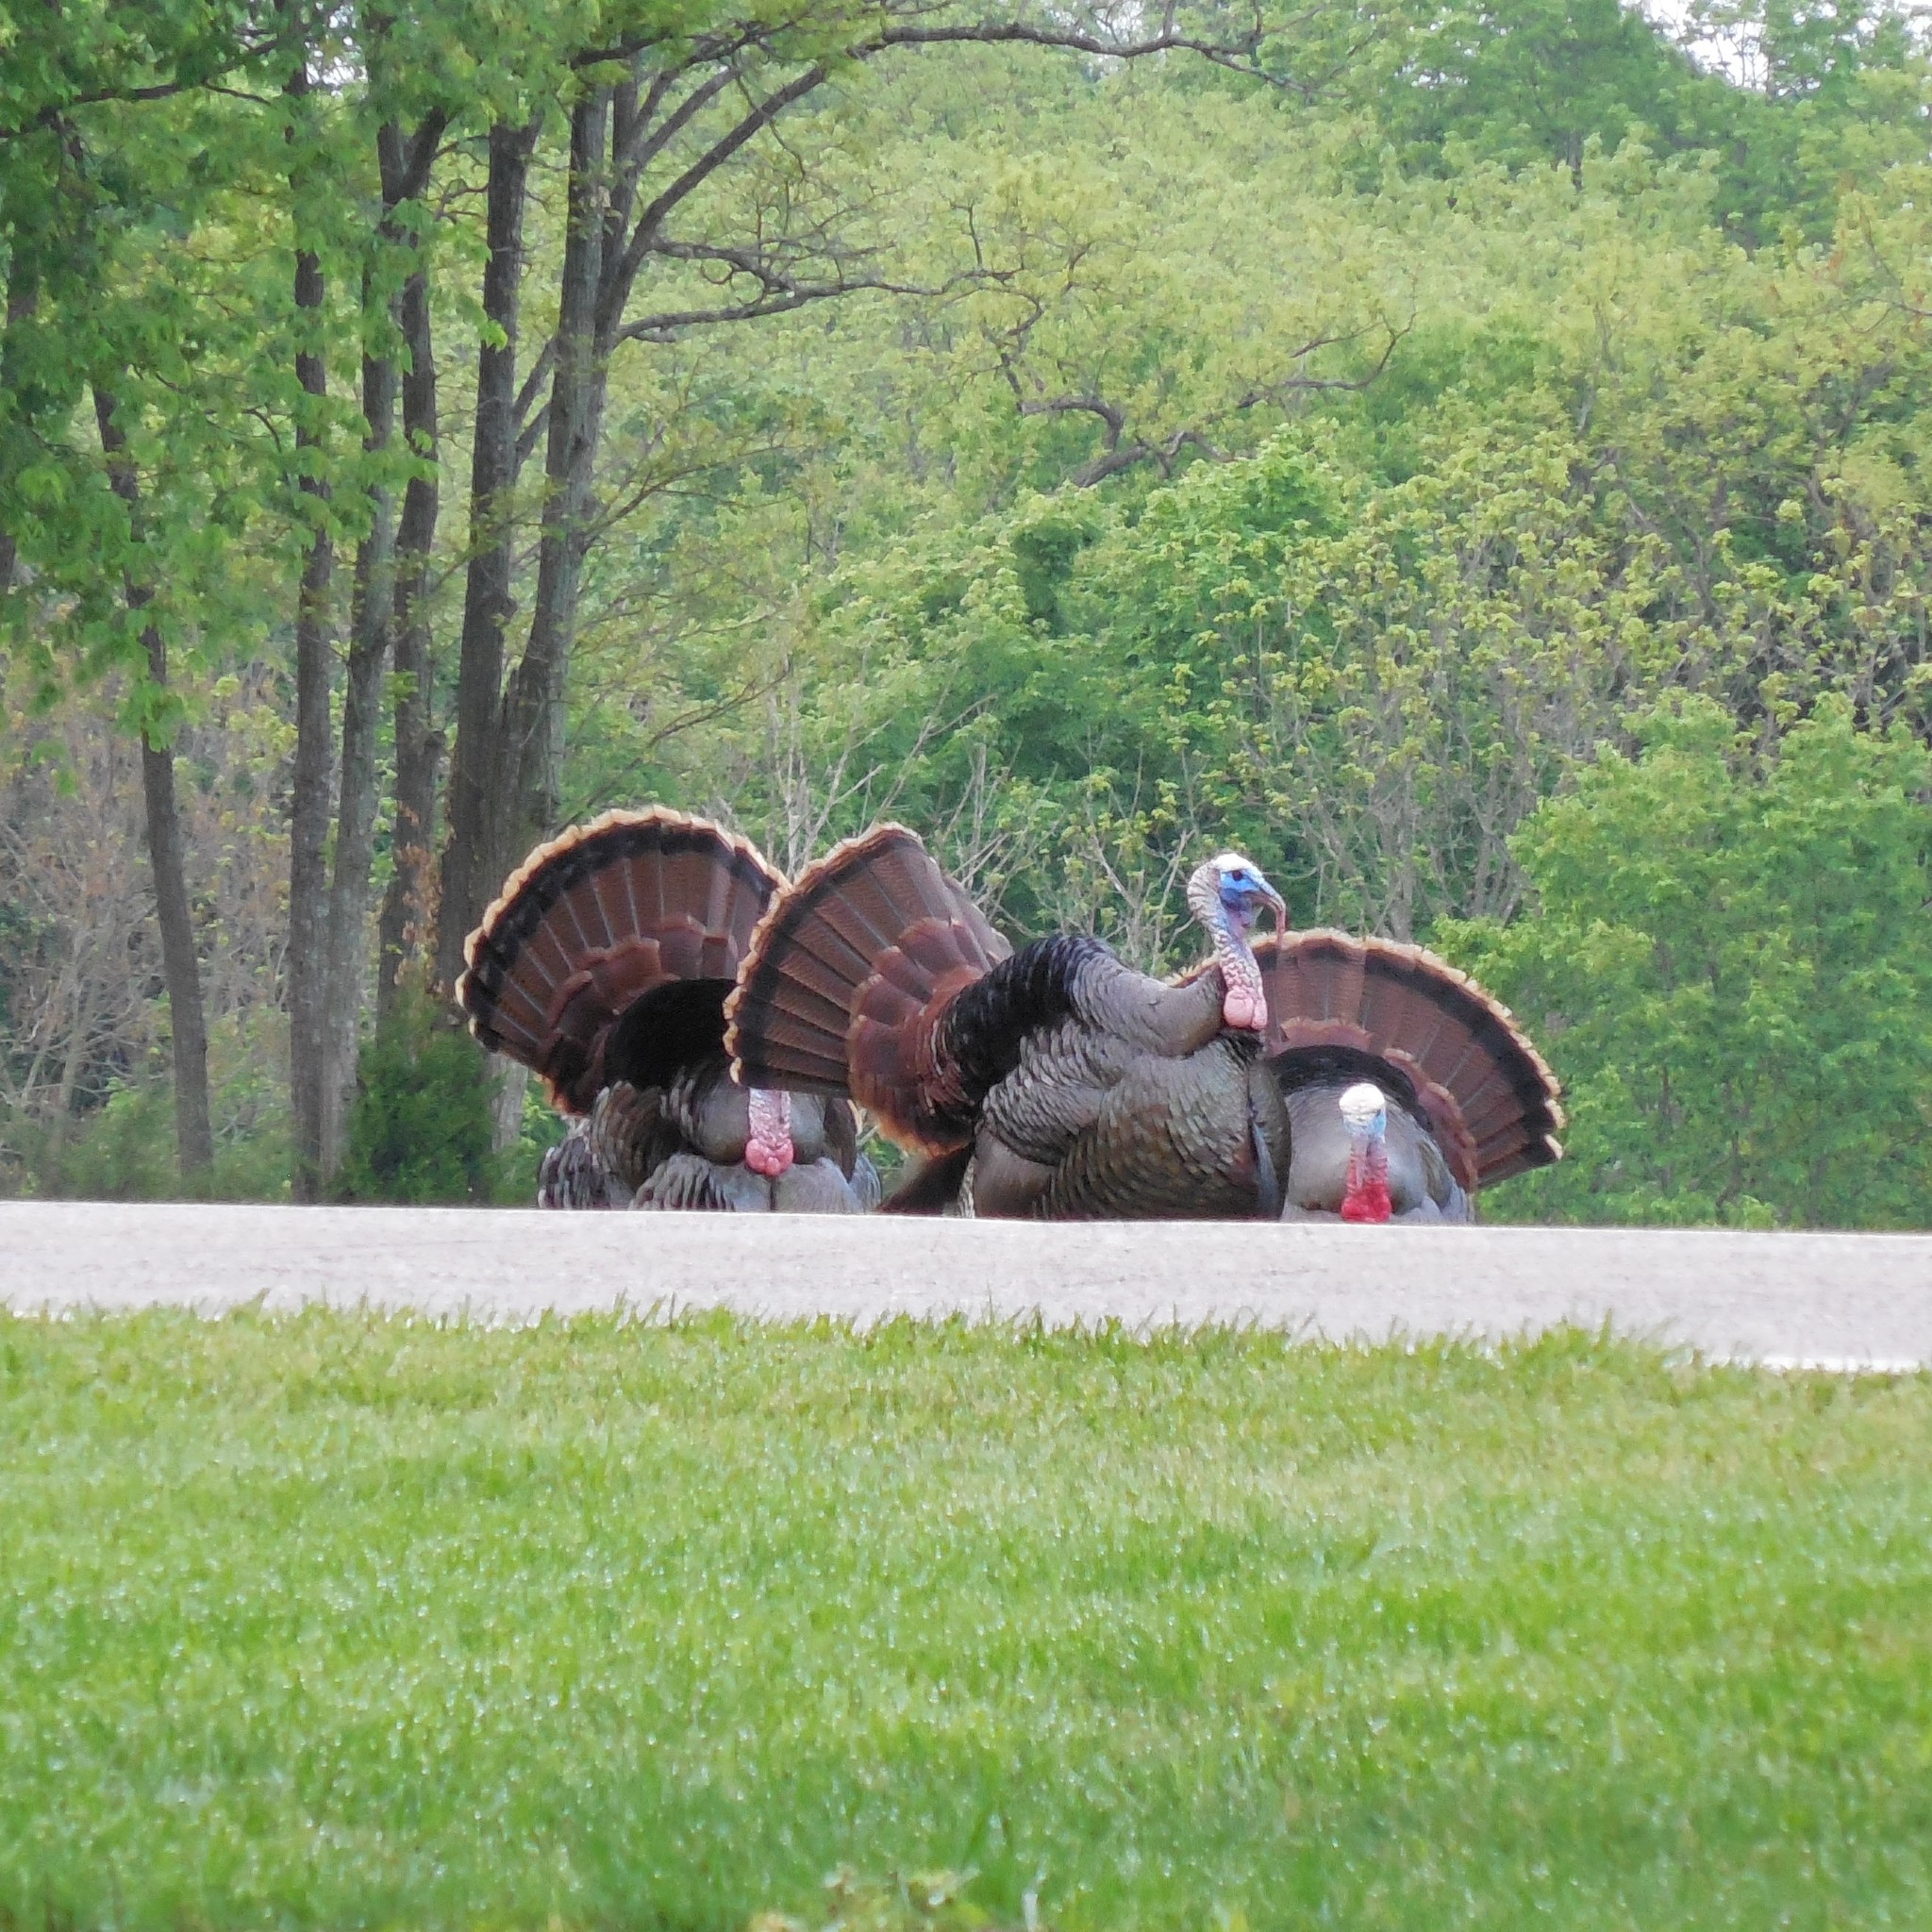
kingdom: Animalia
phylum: Chordata
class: Aves
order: Galliformes
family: Phasianidae
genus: Meleagris
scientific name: Meleagris gallopavo
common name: Wild turkey
